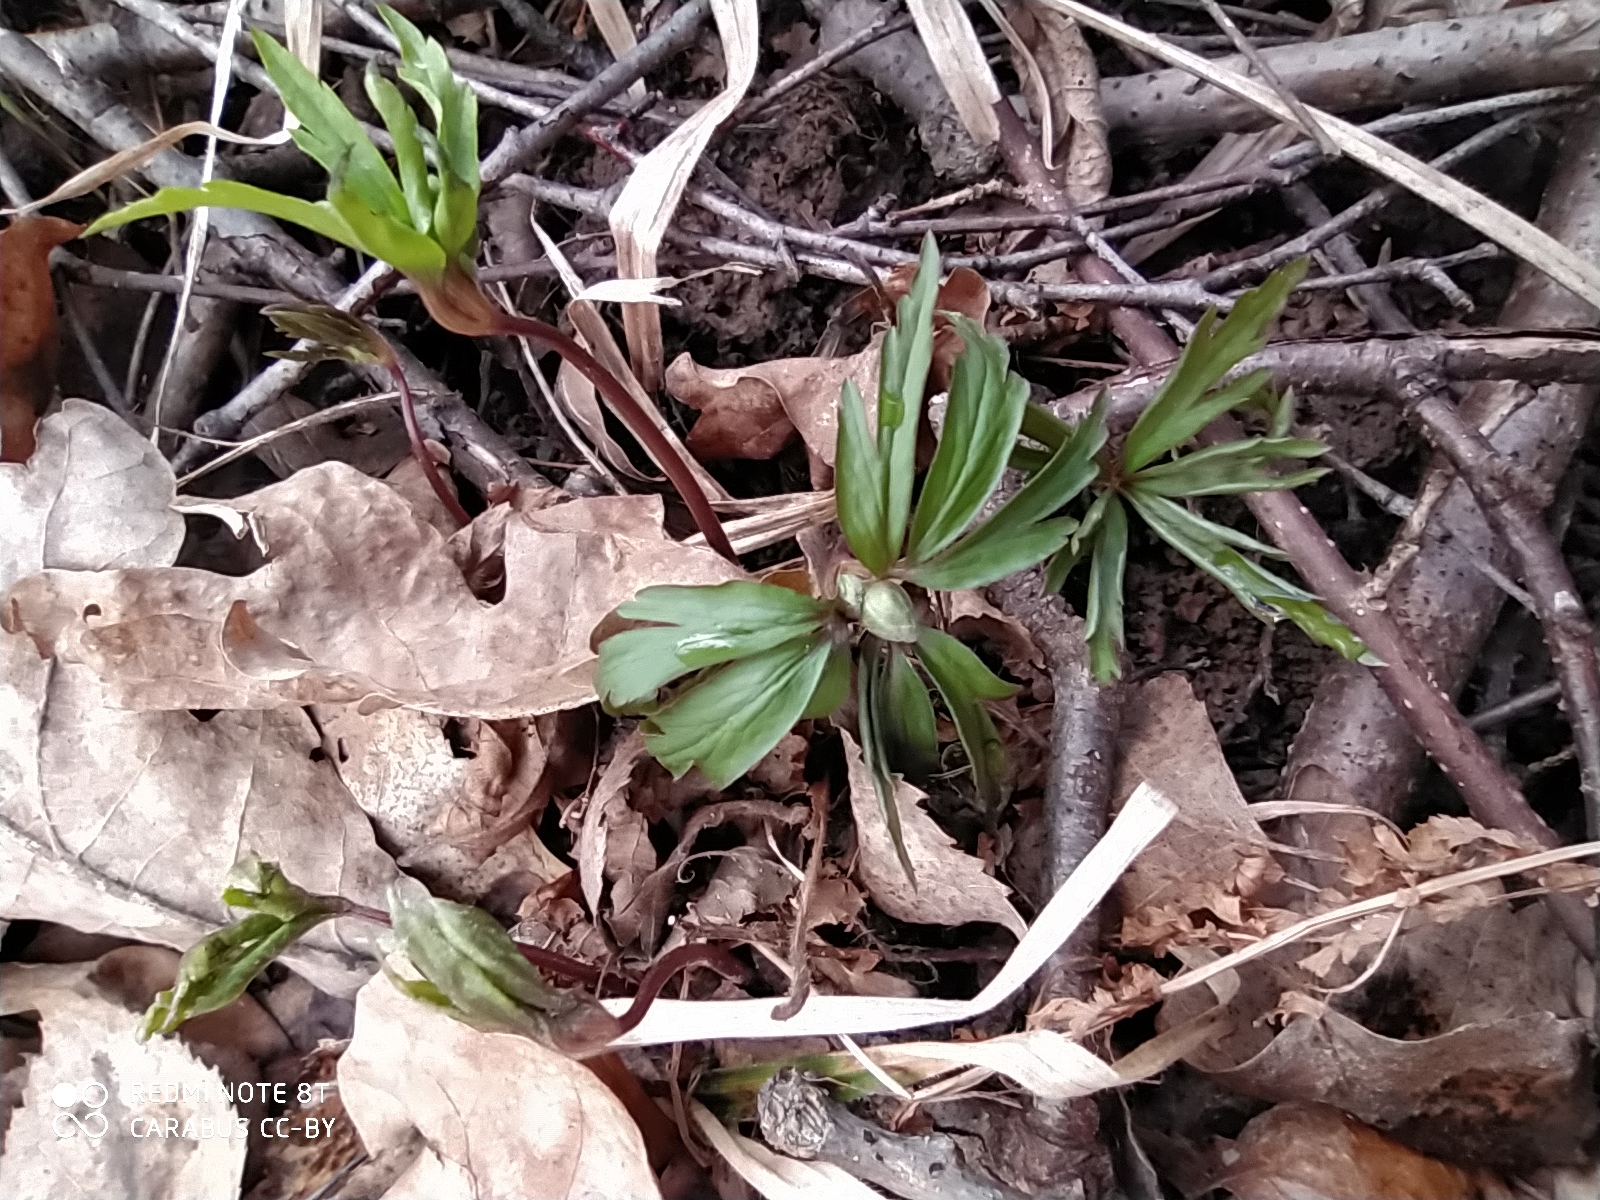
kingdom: Plantae
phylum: Tracheophyta
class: Magnoliopsida
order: Ranunculales
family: Ranunculaceae
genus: Anemone
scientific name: Anemone ranunculoides
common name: Yellow anemone
